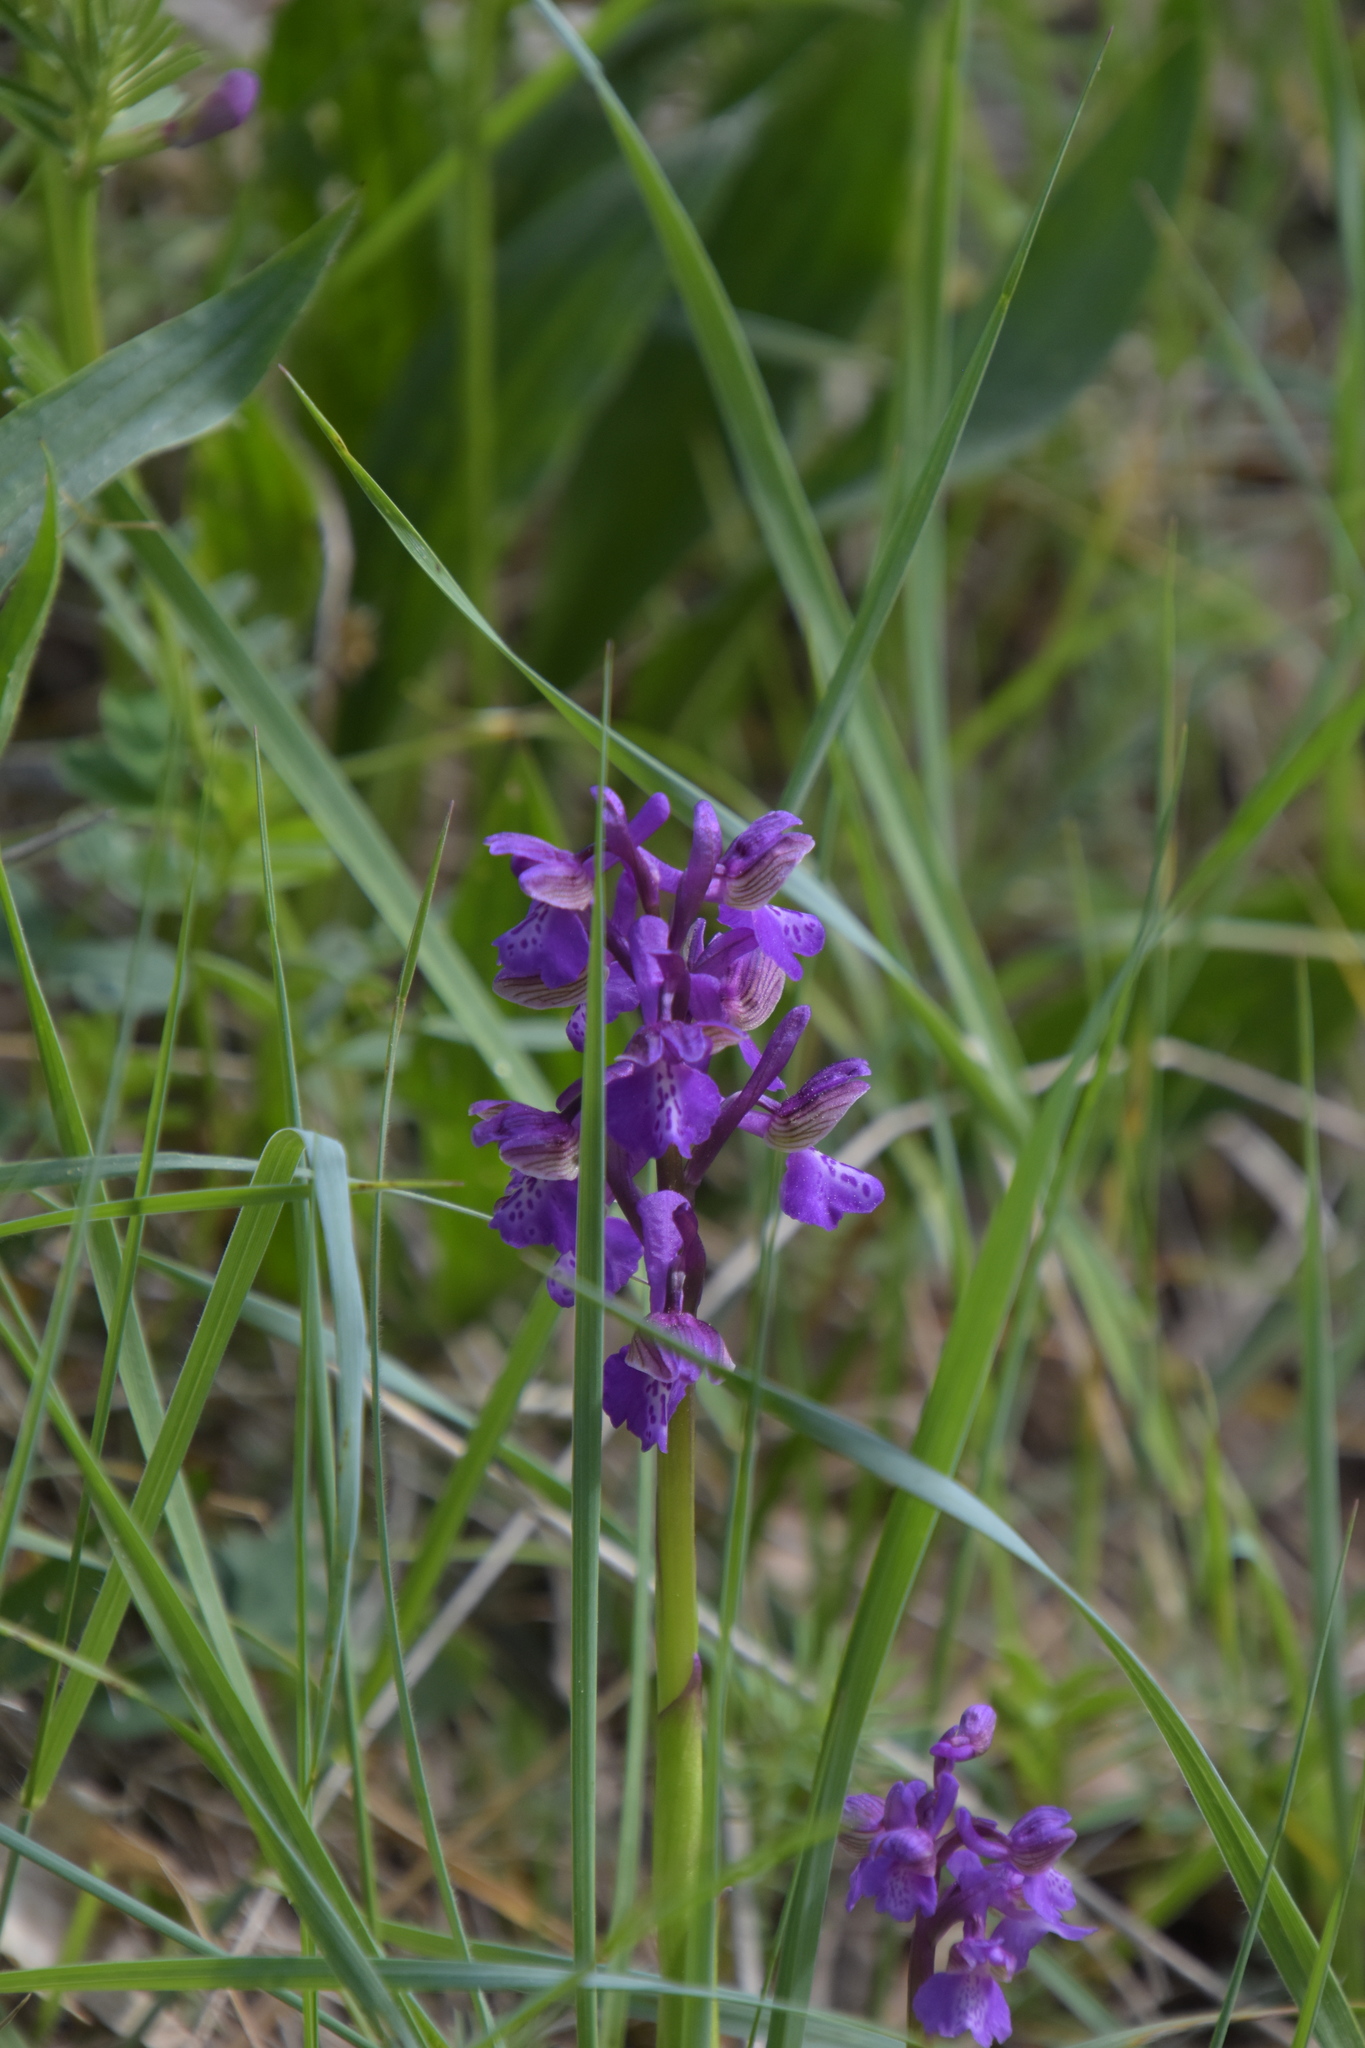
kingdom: Plantae
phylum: Tracheophyta
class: Liliopsida
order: Asparagales
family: Orchidaceae
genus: Anacamptis
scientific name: Anacamptis morio
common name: Green-winged orchid
